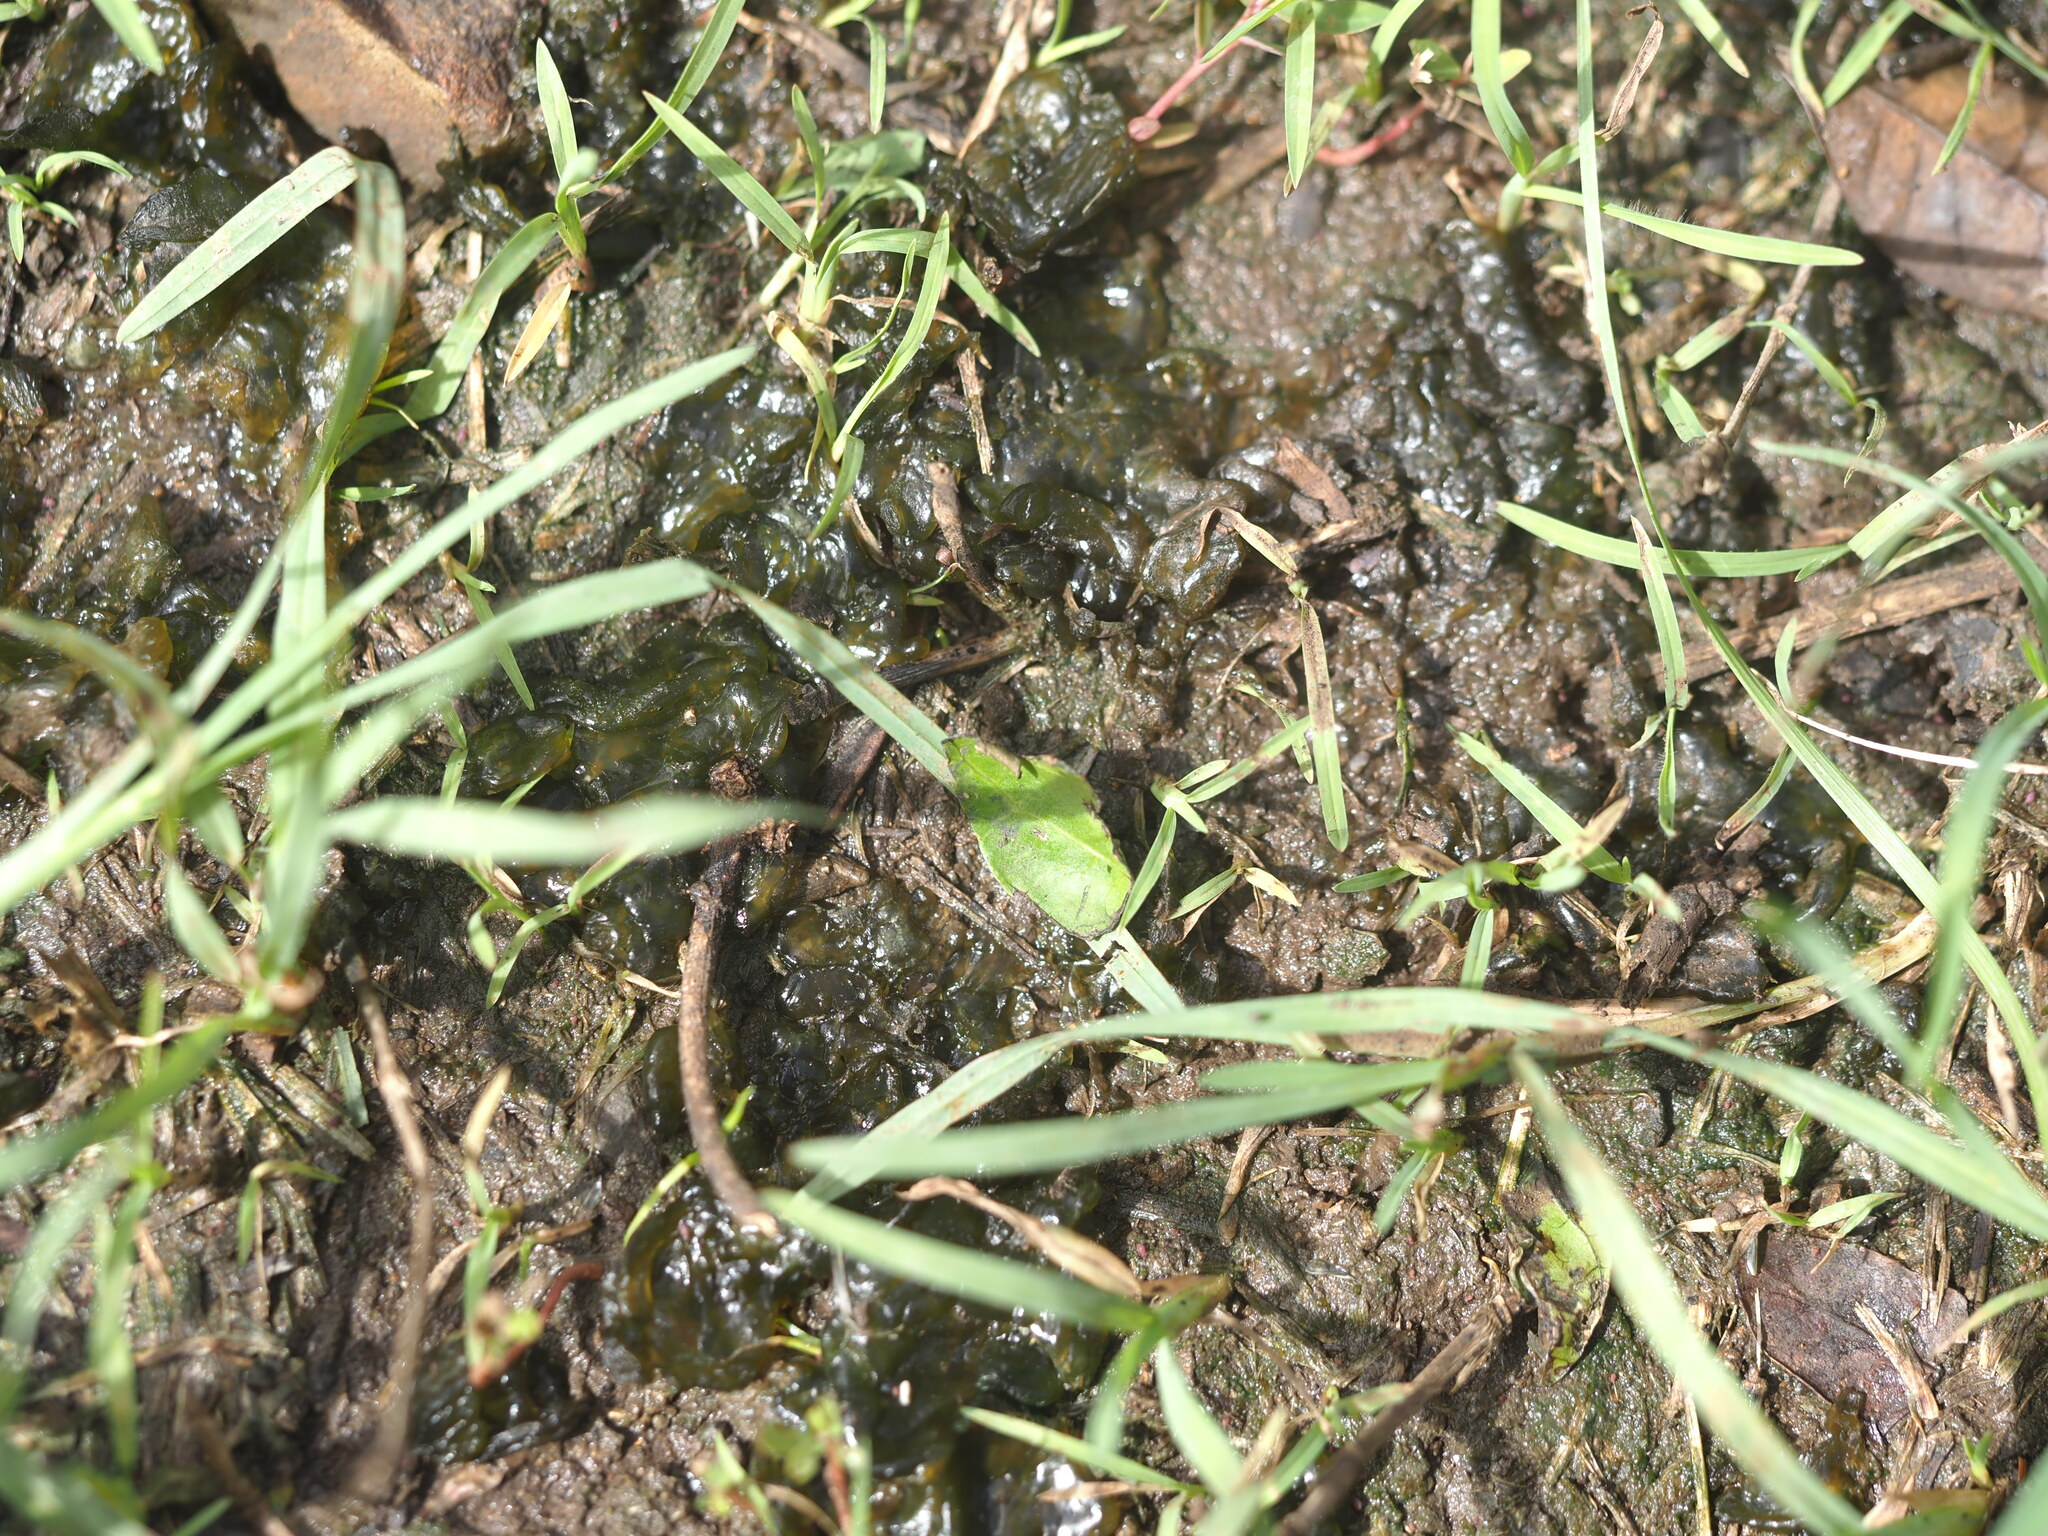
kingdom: Bacteria
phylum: Cyanobacteria
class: Cyanobacteriia
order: Cyanobacteriales
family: Nostocaceae
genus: Nostoc
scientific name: Nostoc commune
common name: Star jelly
